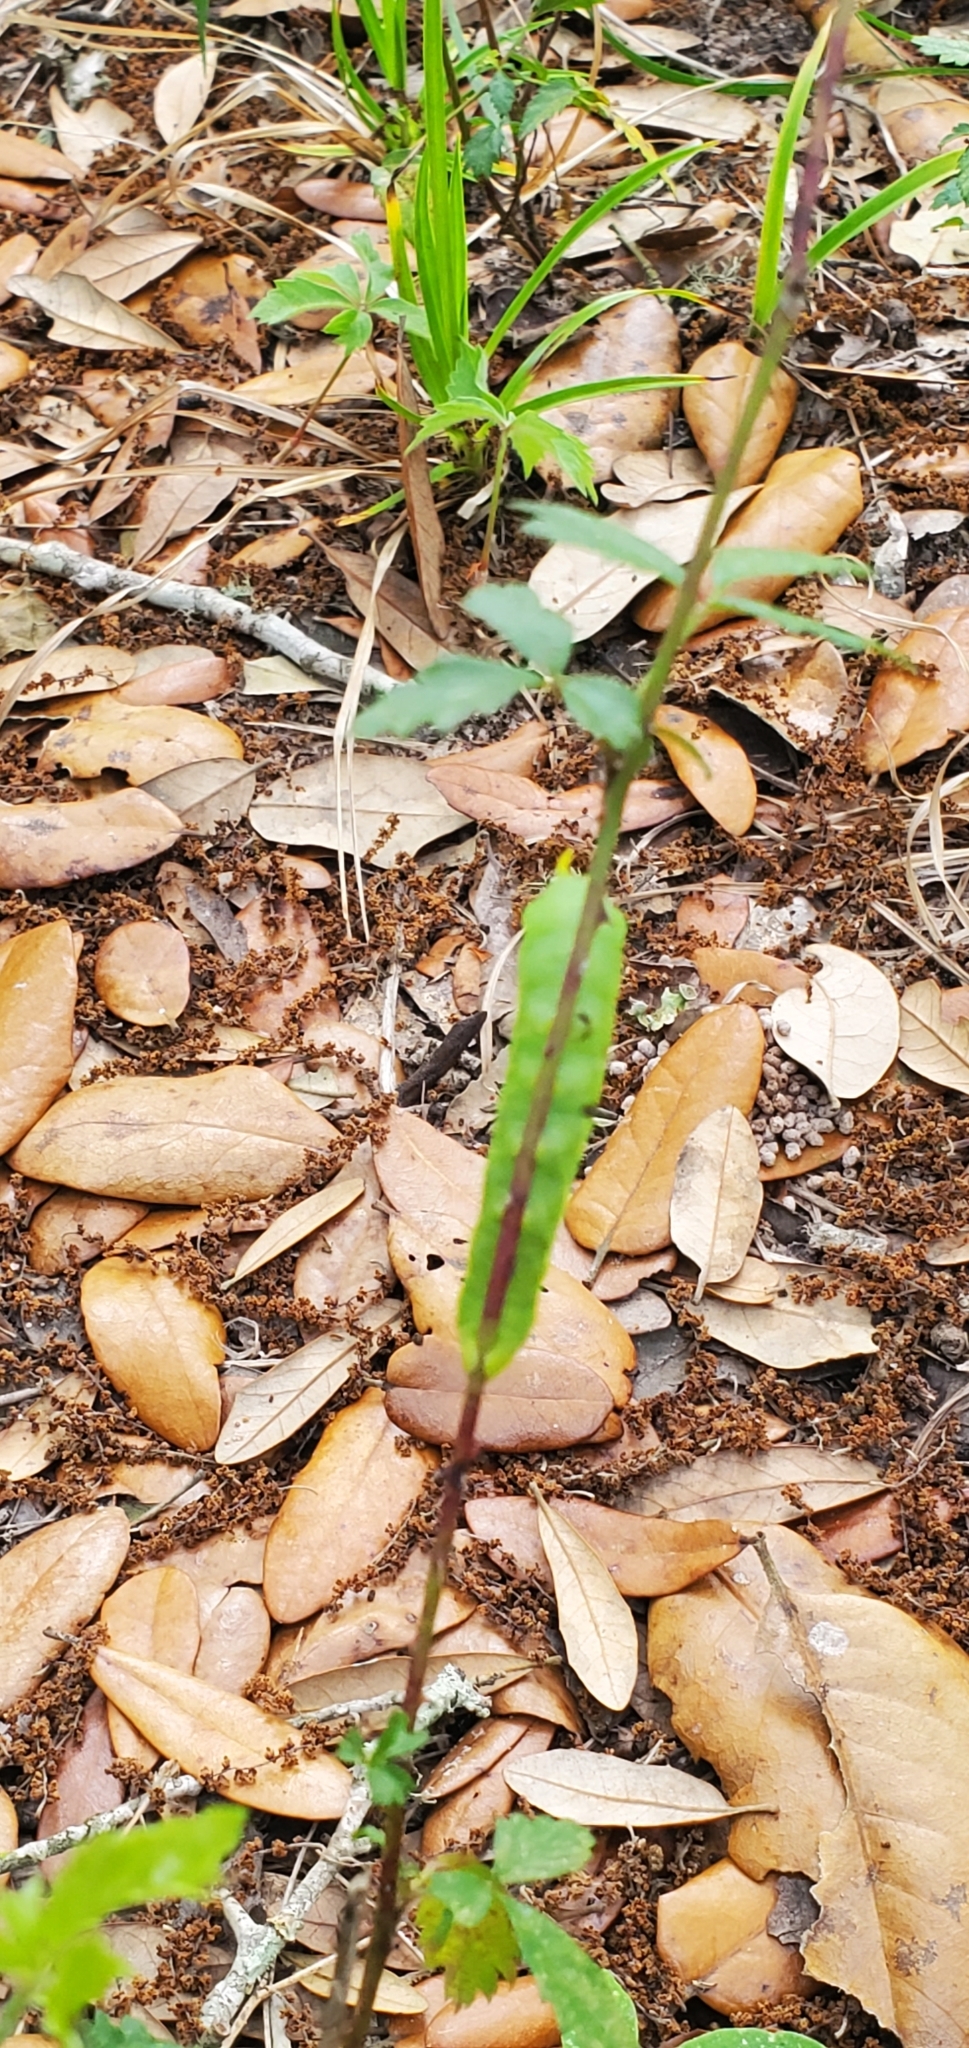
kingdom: Animalia
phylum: Arthropoda
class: Insecta
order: Lepidoptera
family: Sphingidae
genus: Deidamia
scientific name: Deidamia inscriptum
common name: Lettered sphinx
